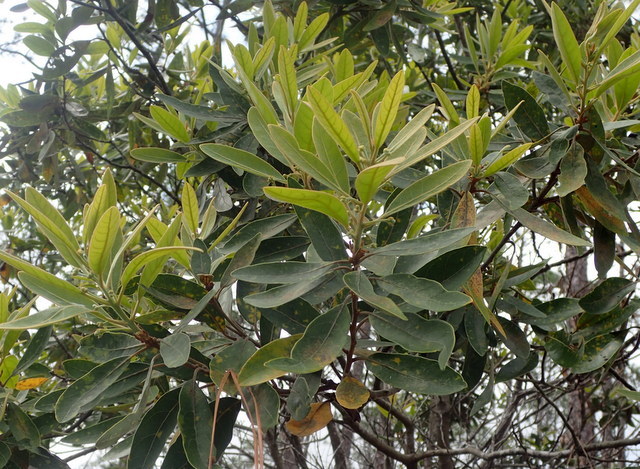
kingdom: Plantae
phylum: Tracheophyta
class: Magnoliopsida
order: Laurales
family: Lauraceae
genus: Persea
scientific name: Persea palustris
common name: Swampbay
